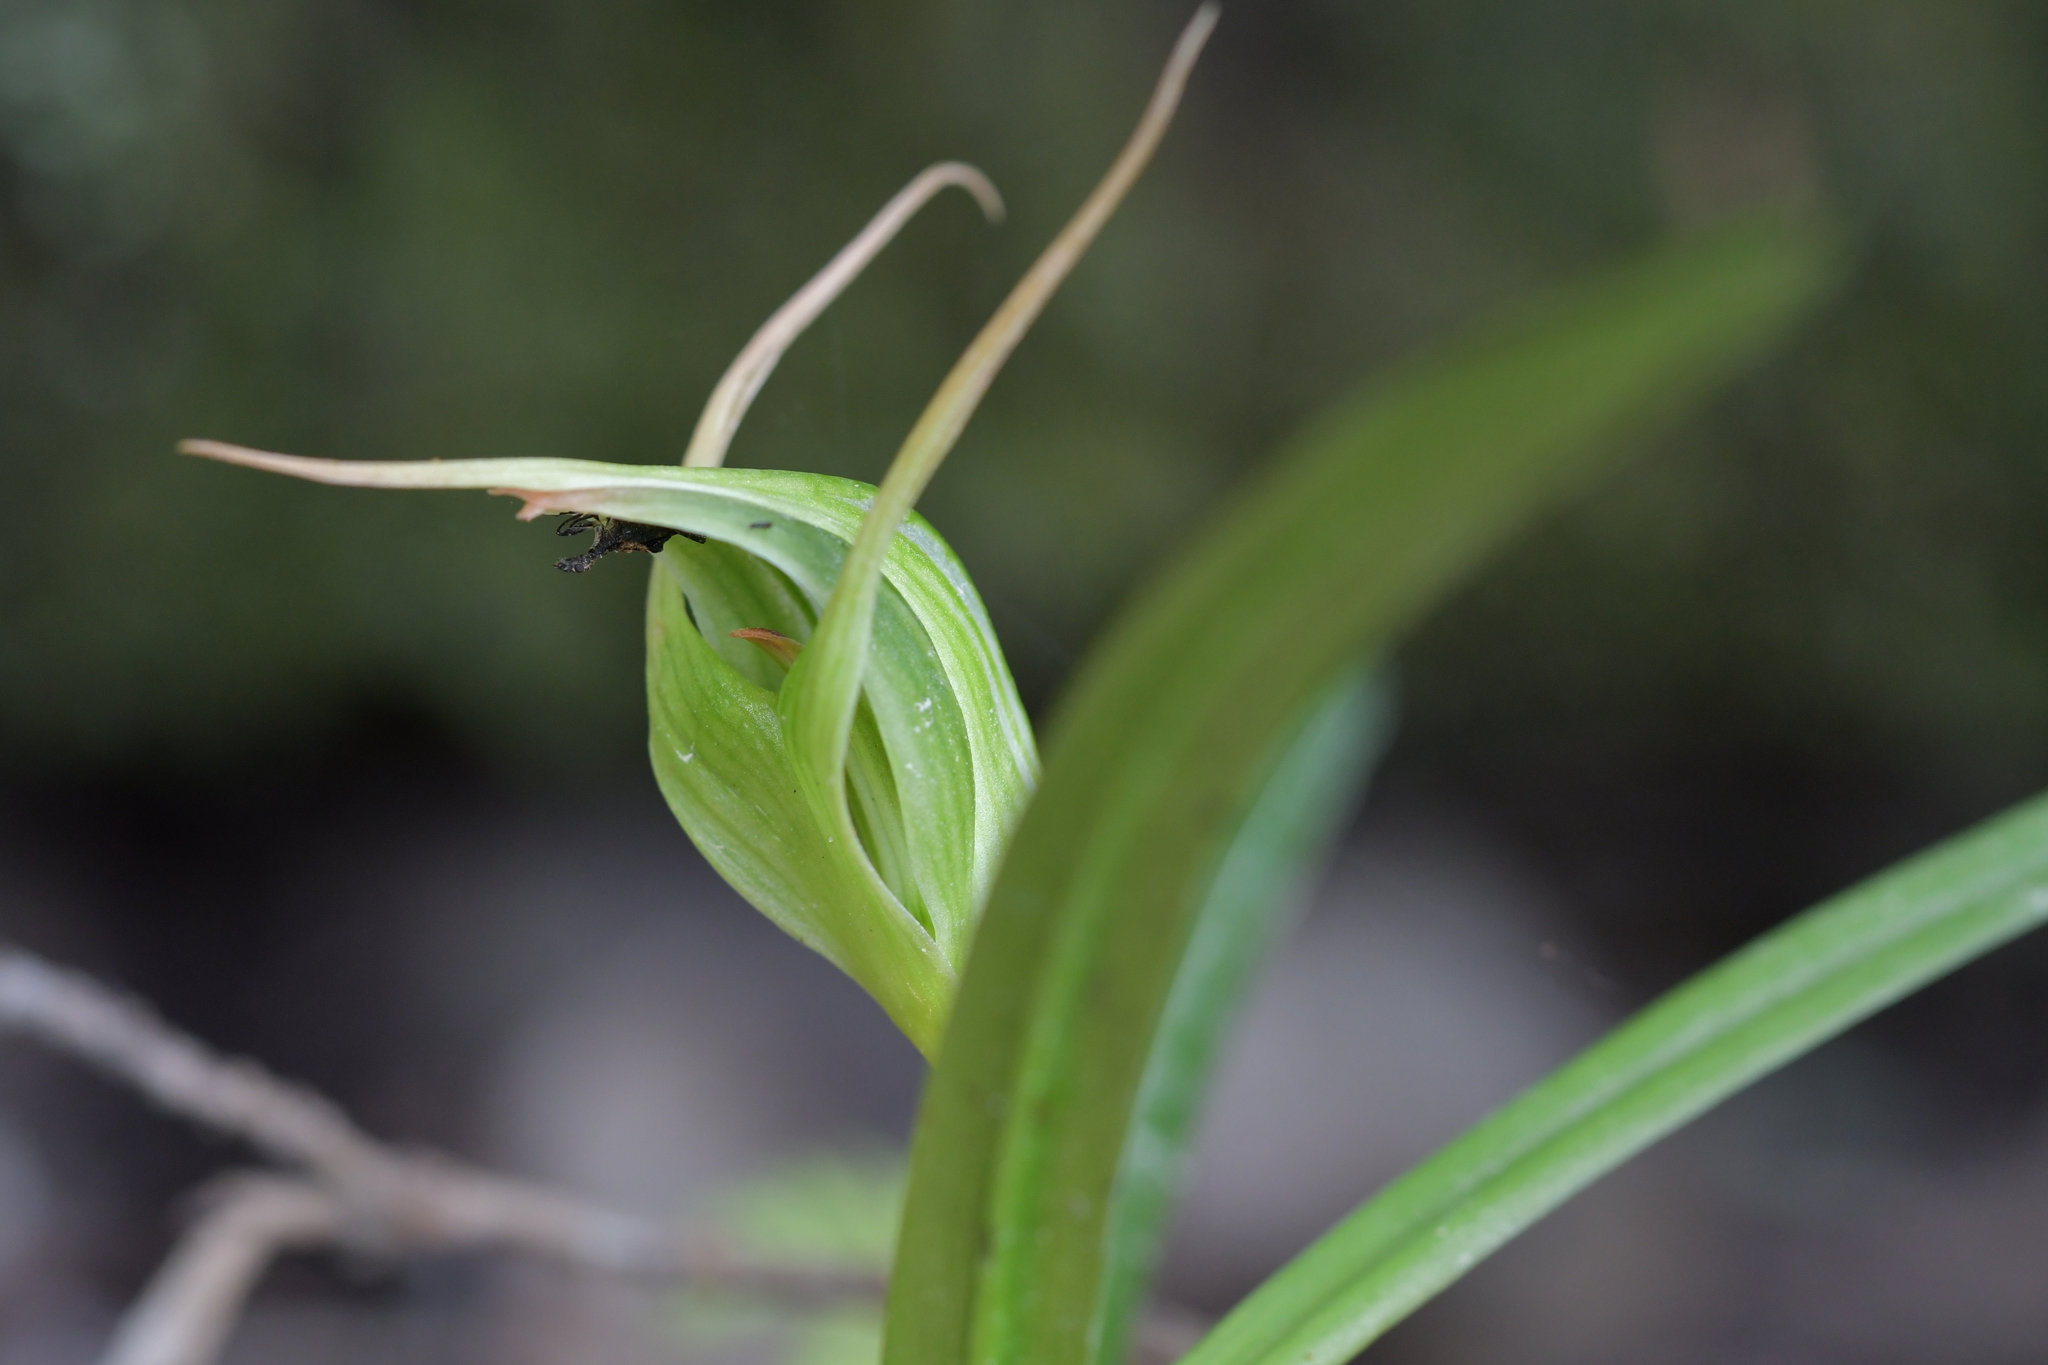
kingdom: Plantae
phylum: Tracheophyta
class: Liliopsida
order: Asparagales
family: Orchidaceae
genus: Pterostylis
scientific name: Pterostylis banksii
